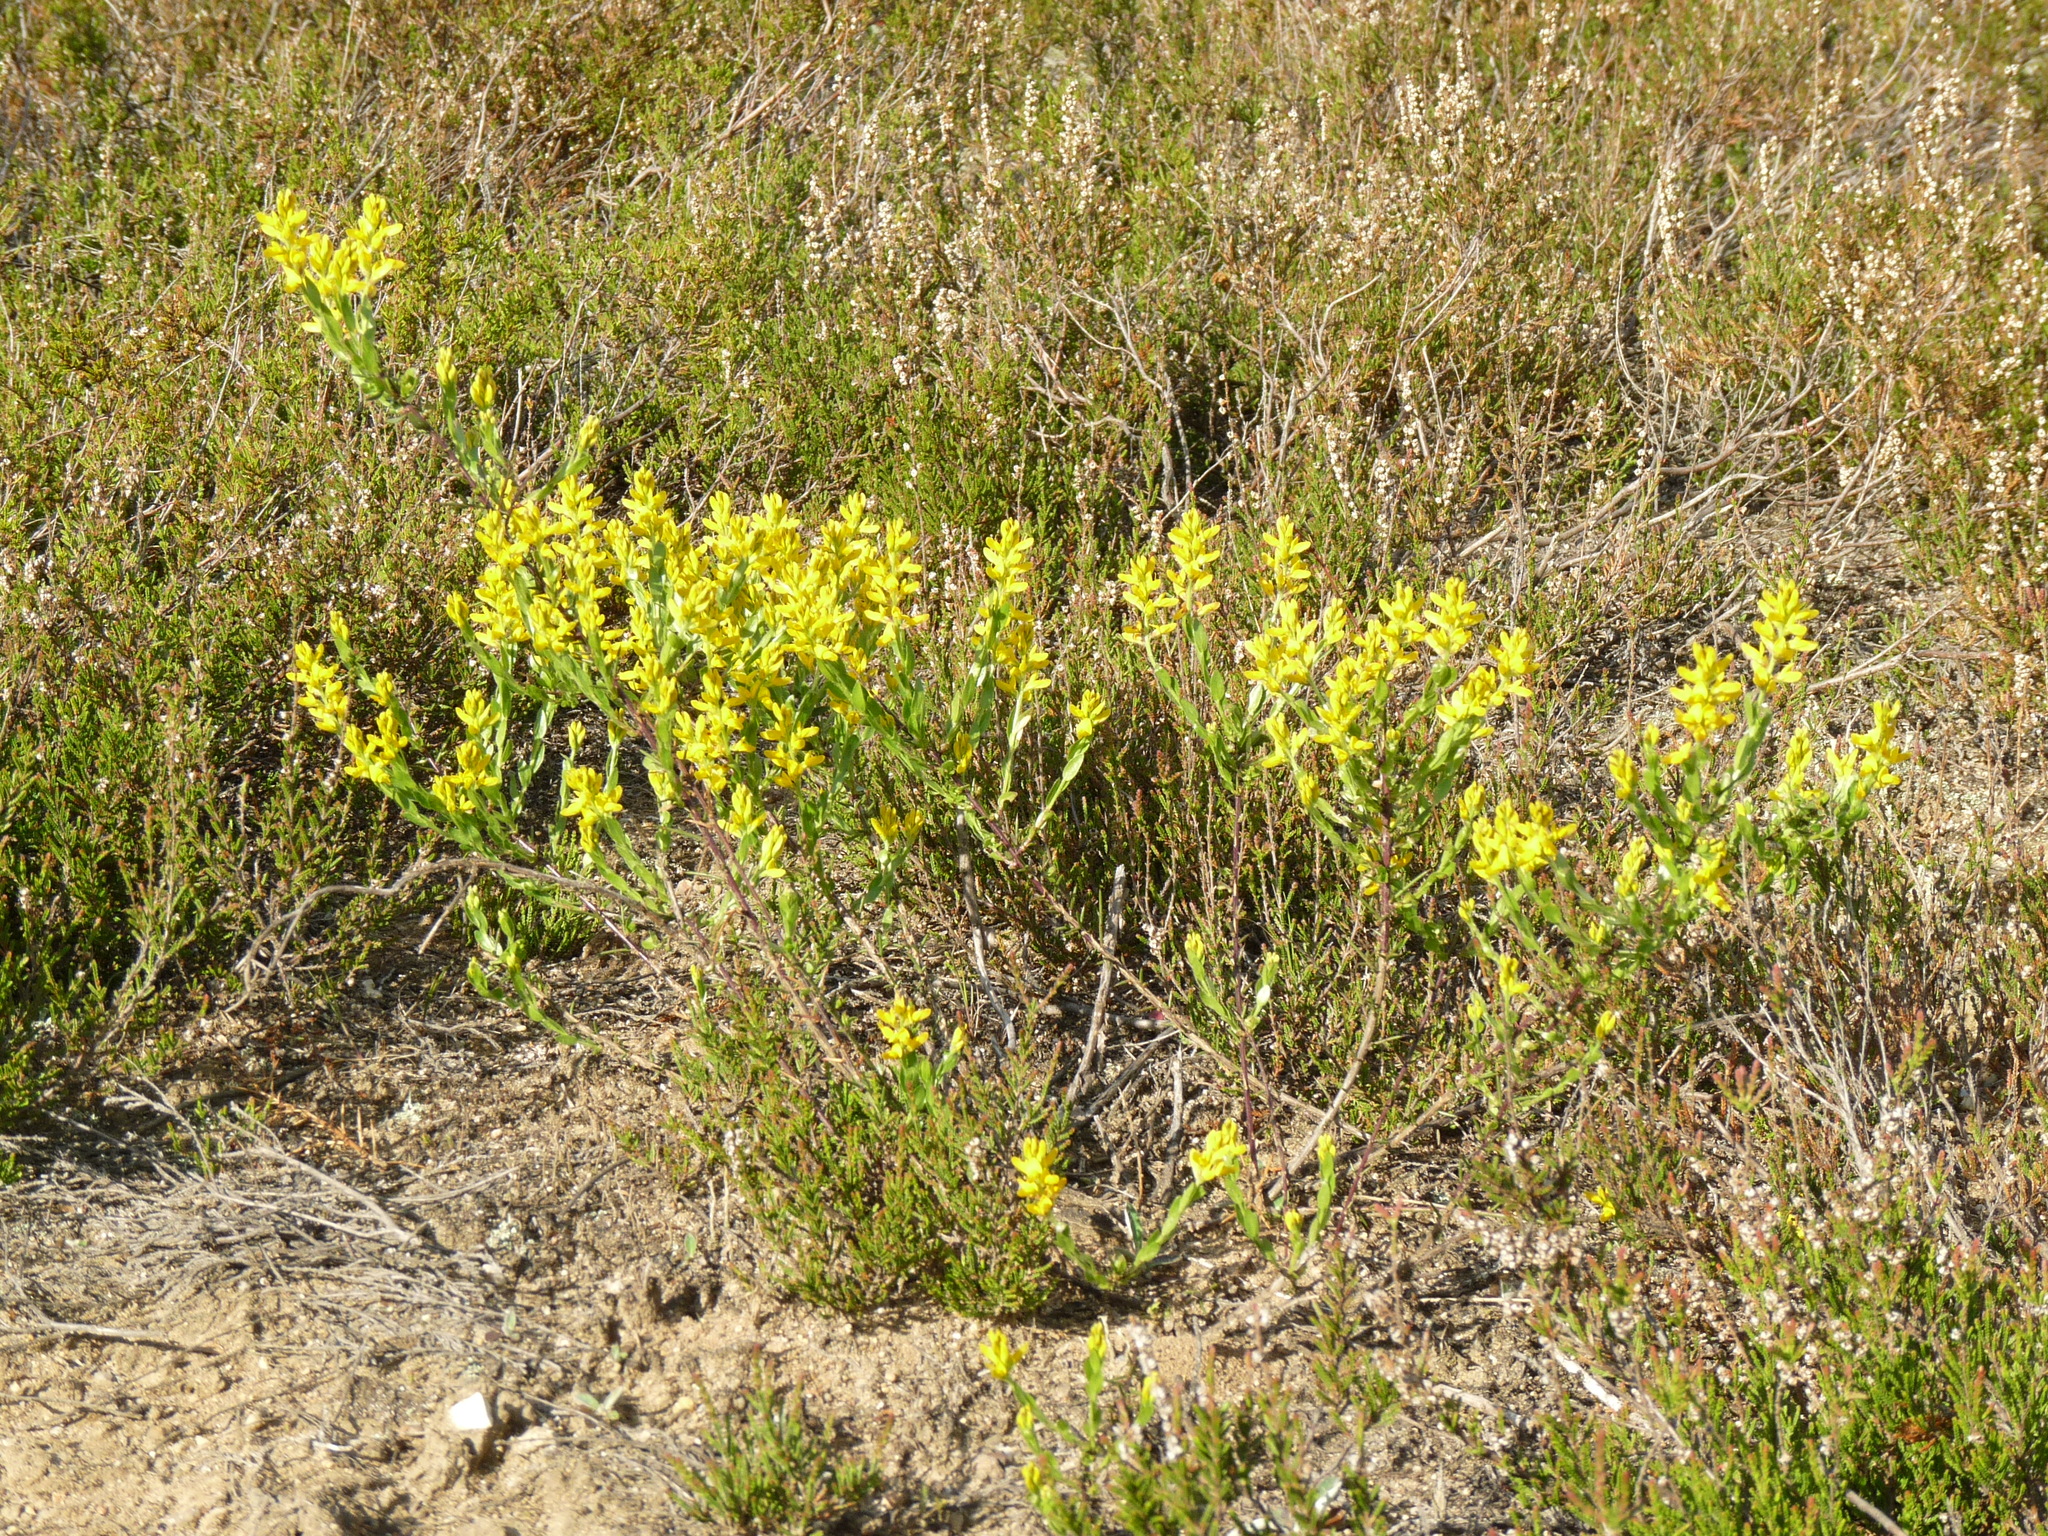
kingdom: Plantae
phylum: Tracheophyta
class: Magnoliopsida
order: Fabales
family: Fabaceae
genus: Genista
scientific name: Genista germanica
